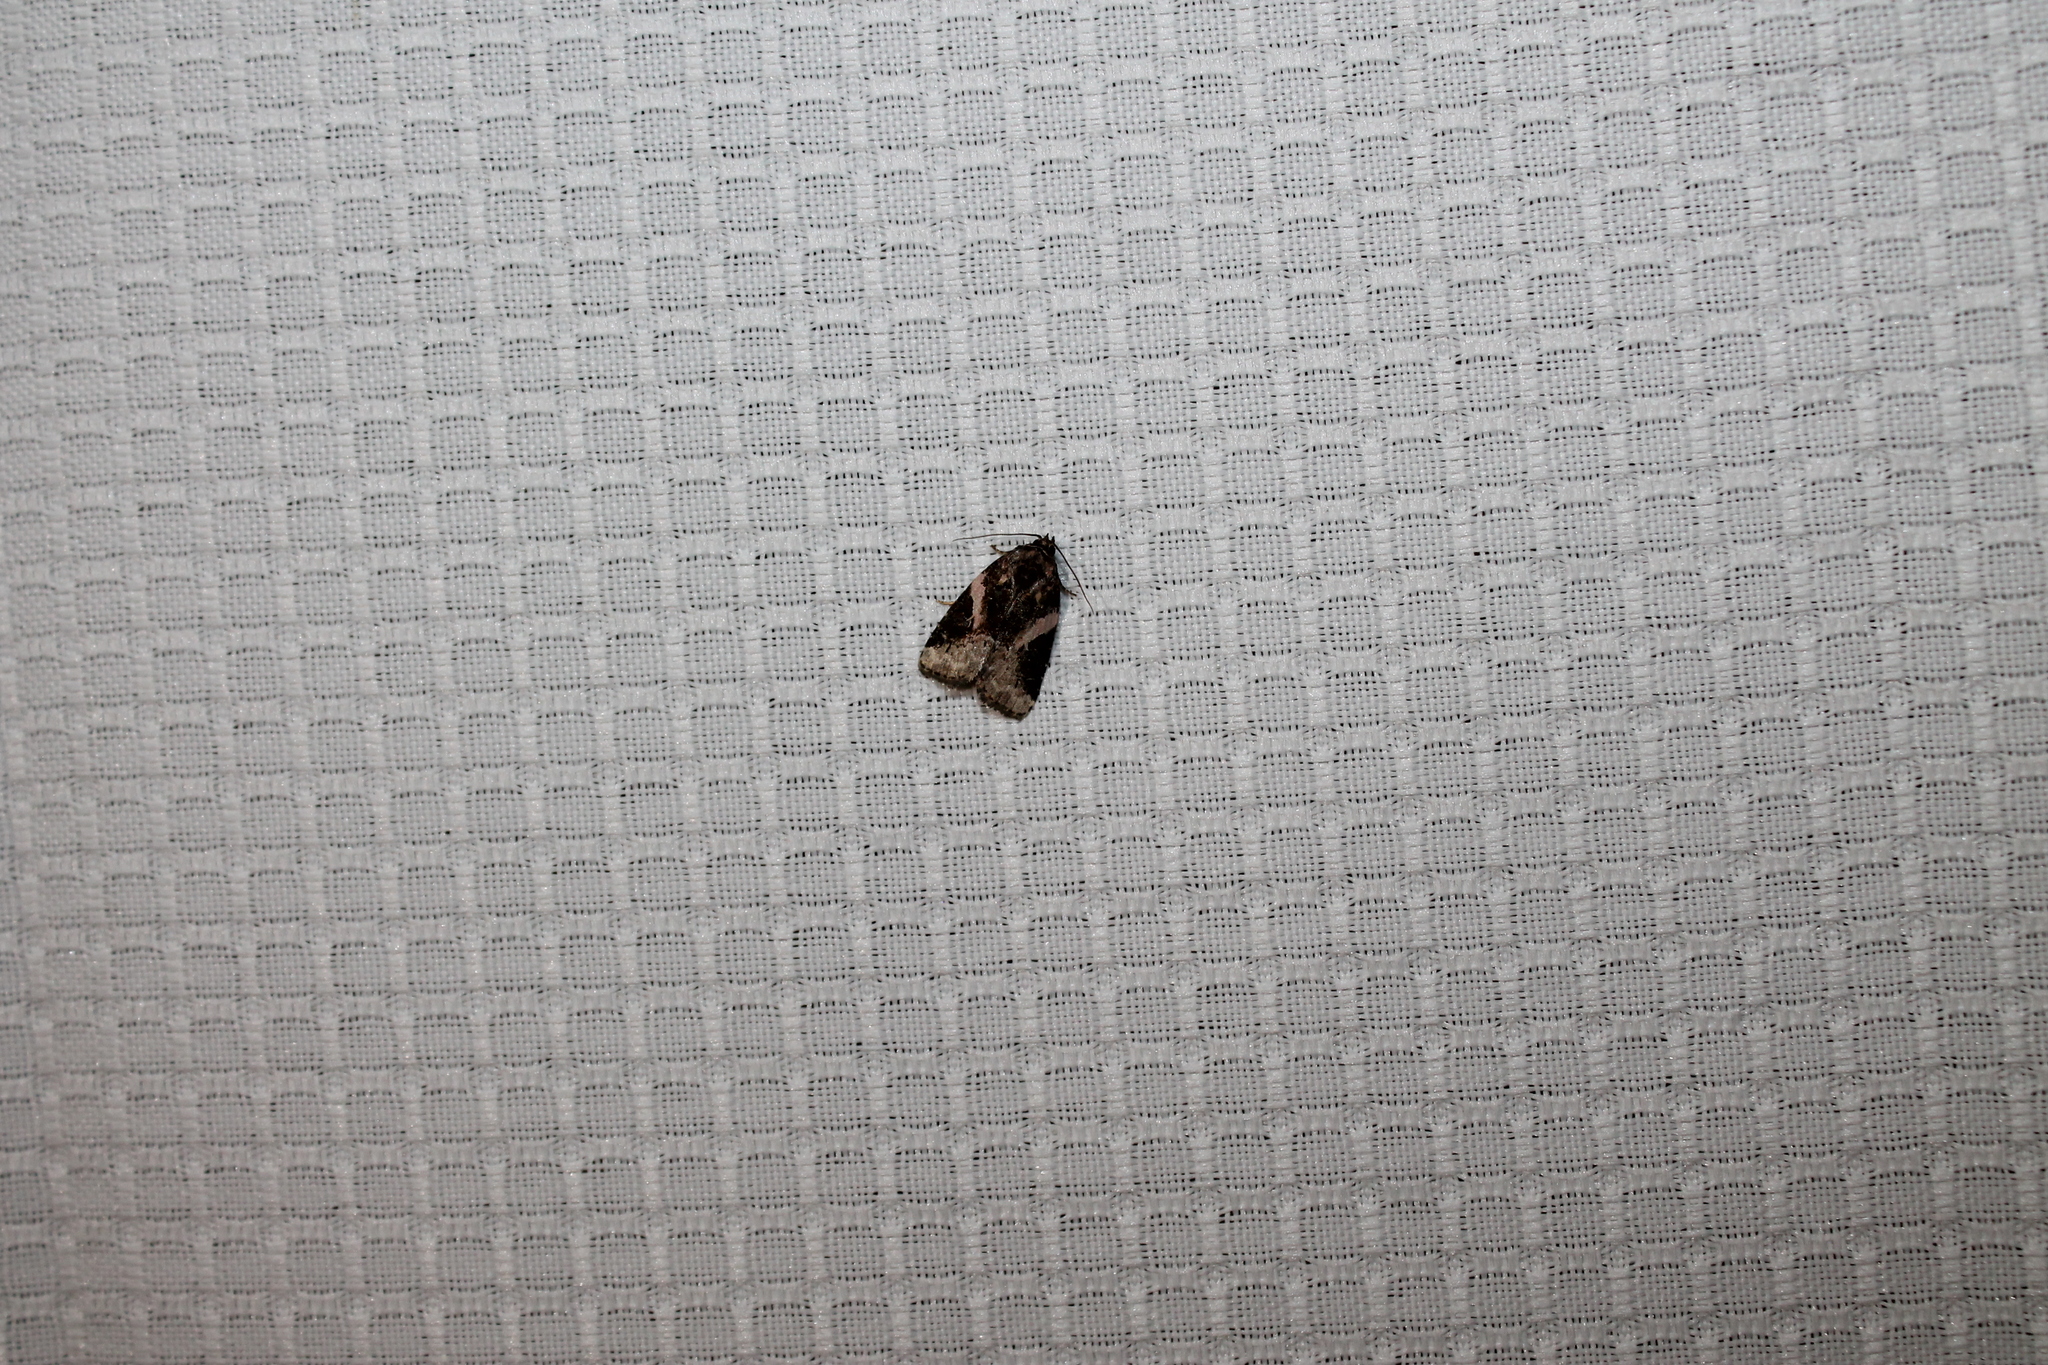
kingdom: Animalia
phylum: Arthropoda
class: Insecta
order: Lepidoptera
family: Noctuidae
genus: Pseudeustrotia
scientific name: Pseudeustrotia carneola
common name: Pink-barred lithacodia moth
